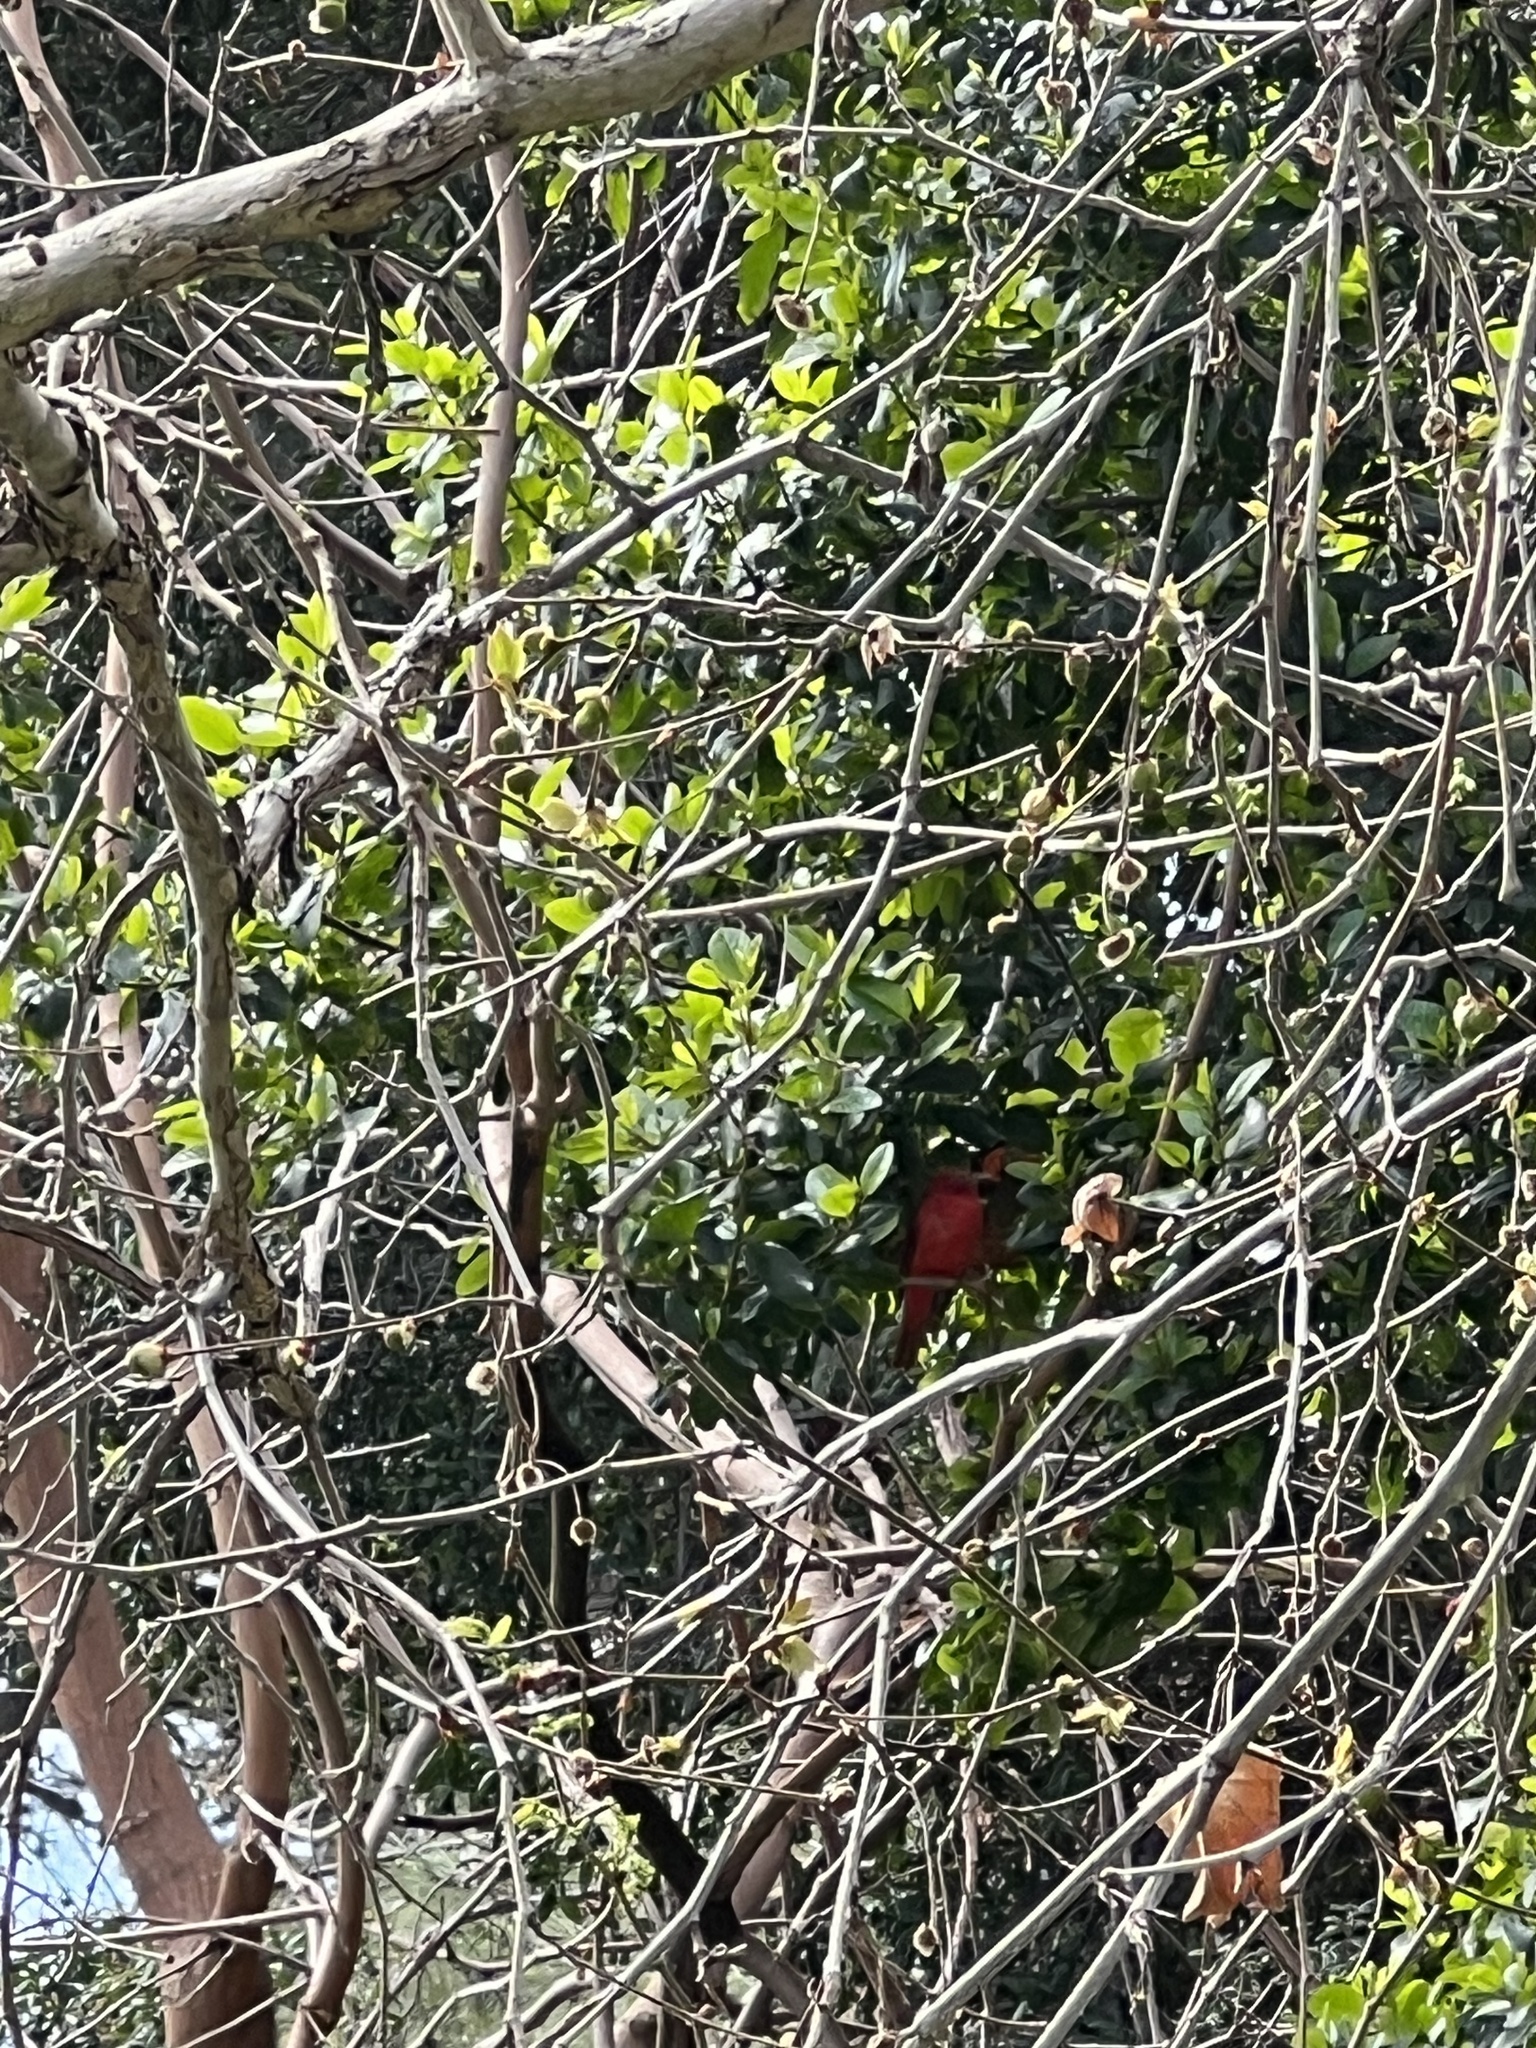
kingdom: Animalia
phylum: Chordata
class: Aves
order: Passeriformes
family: Cardinalidae
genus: Piranga
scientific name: Piranga rubra
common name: Summer tanager
